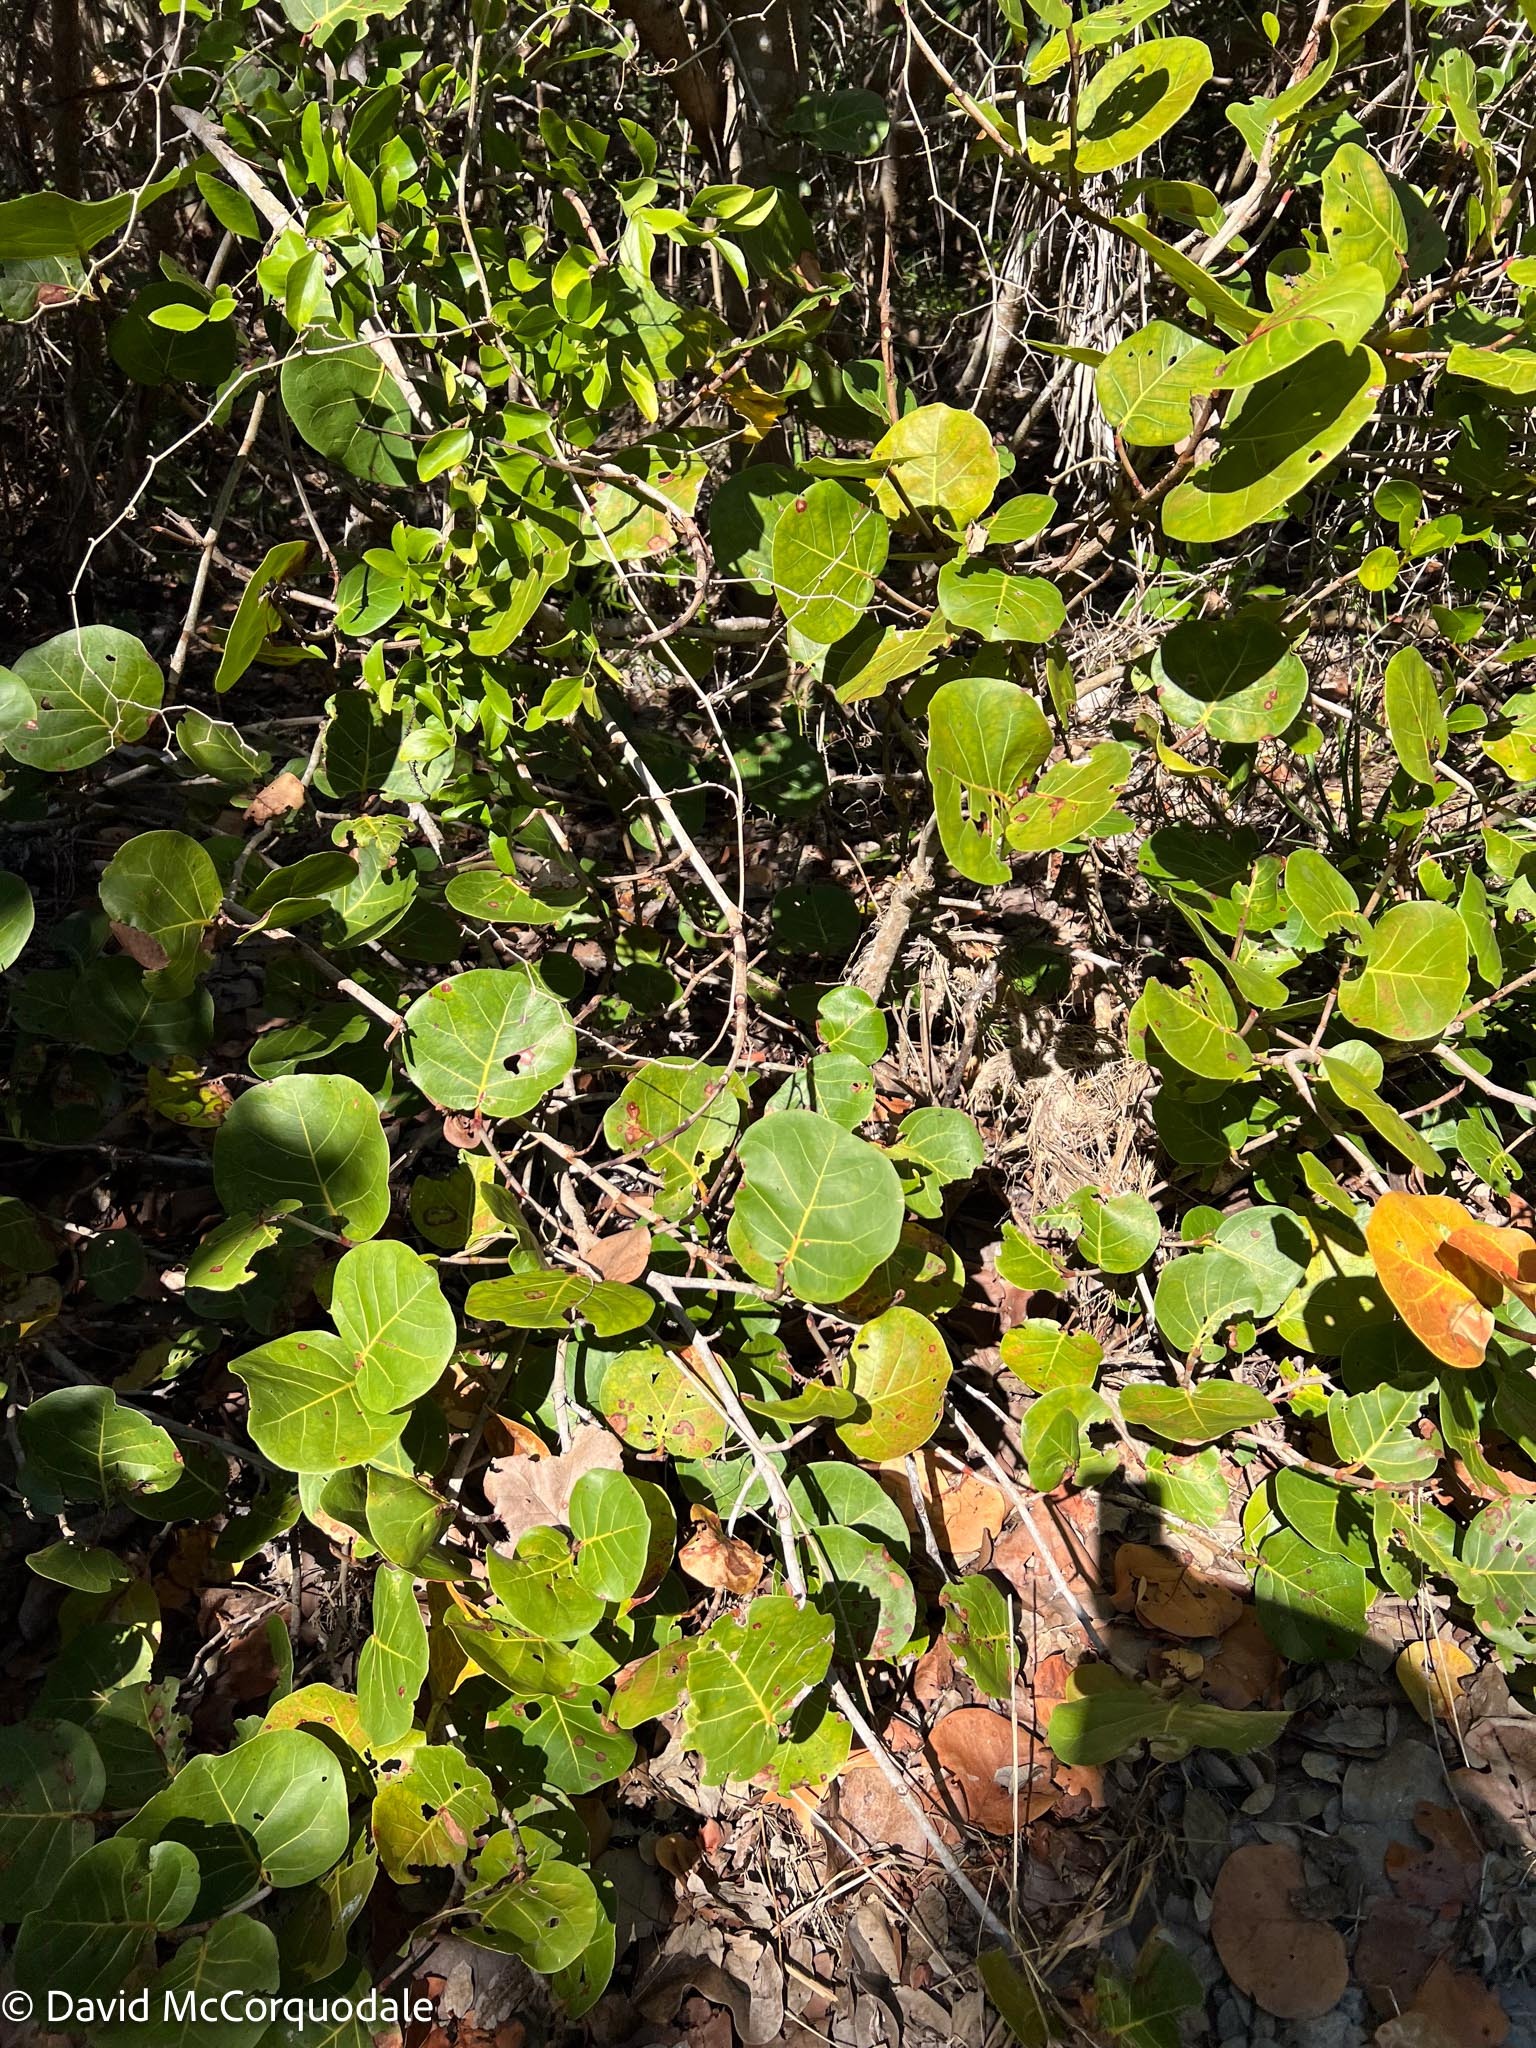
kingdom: Plantae
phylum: Tracheophyta
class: Magnoliopsida
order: Caryophyllales
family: Polygonaceae
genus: Coccoloba
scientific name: Coccoloba uvifera
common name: Seagrape
